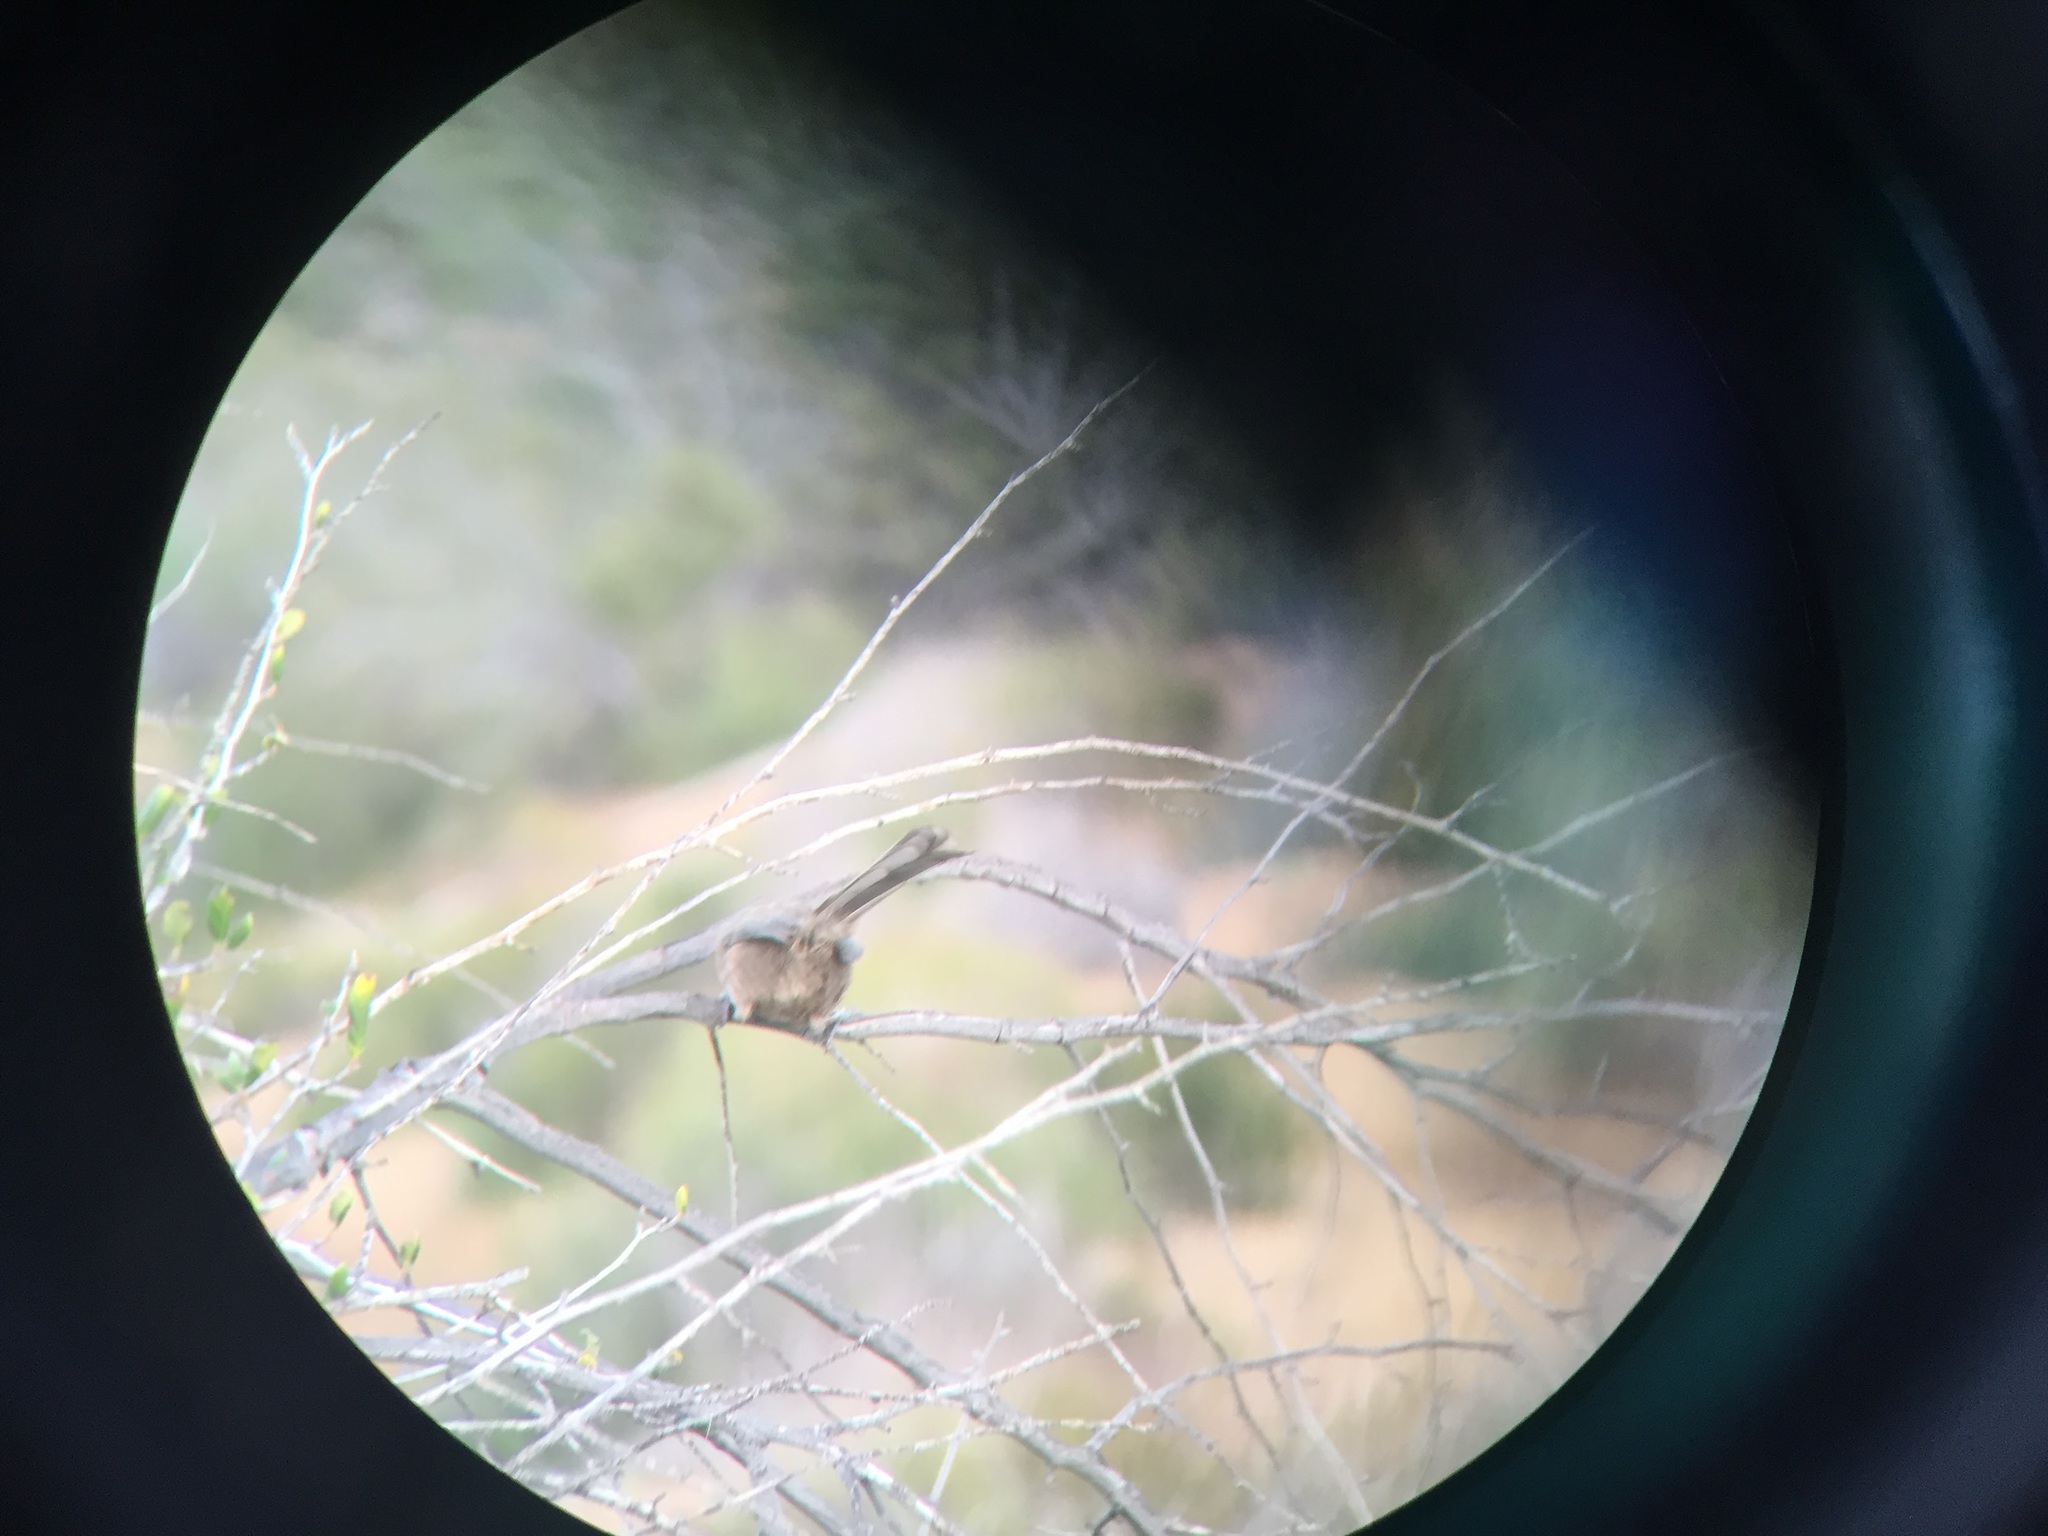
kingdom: Animalia
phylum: Chordata
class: Aves
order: Passeriformes
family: Sylviidae
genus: Chamaea
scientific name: Chamaea fasciata
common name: Wrentit
